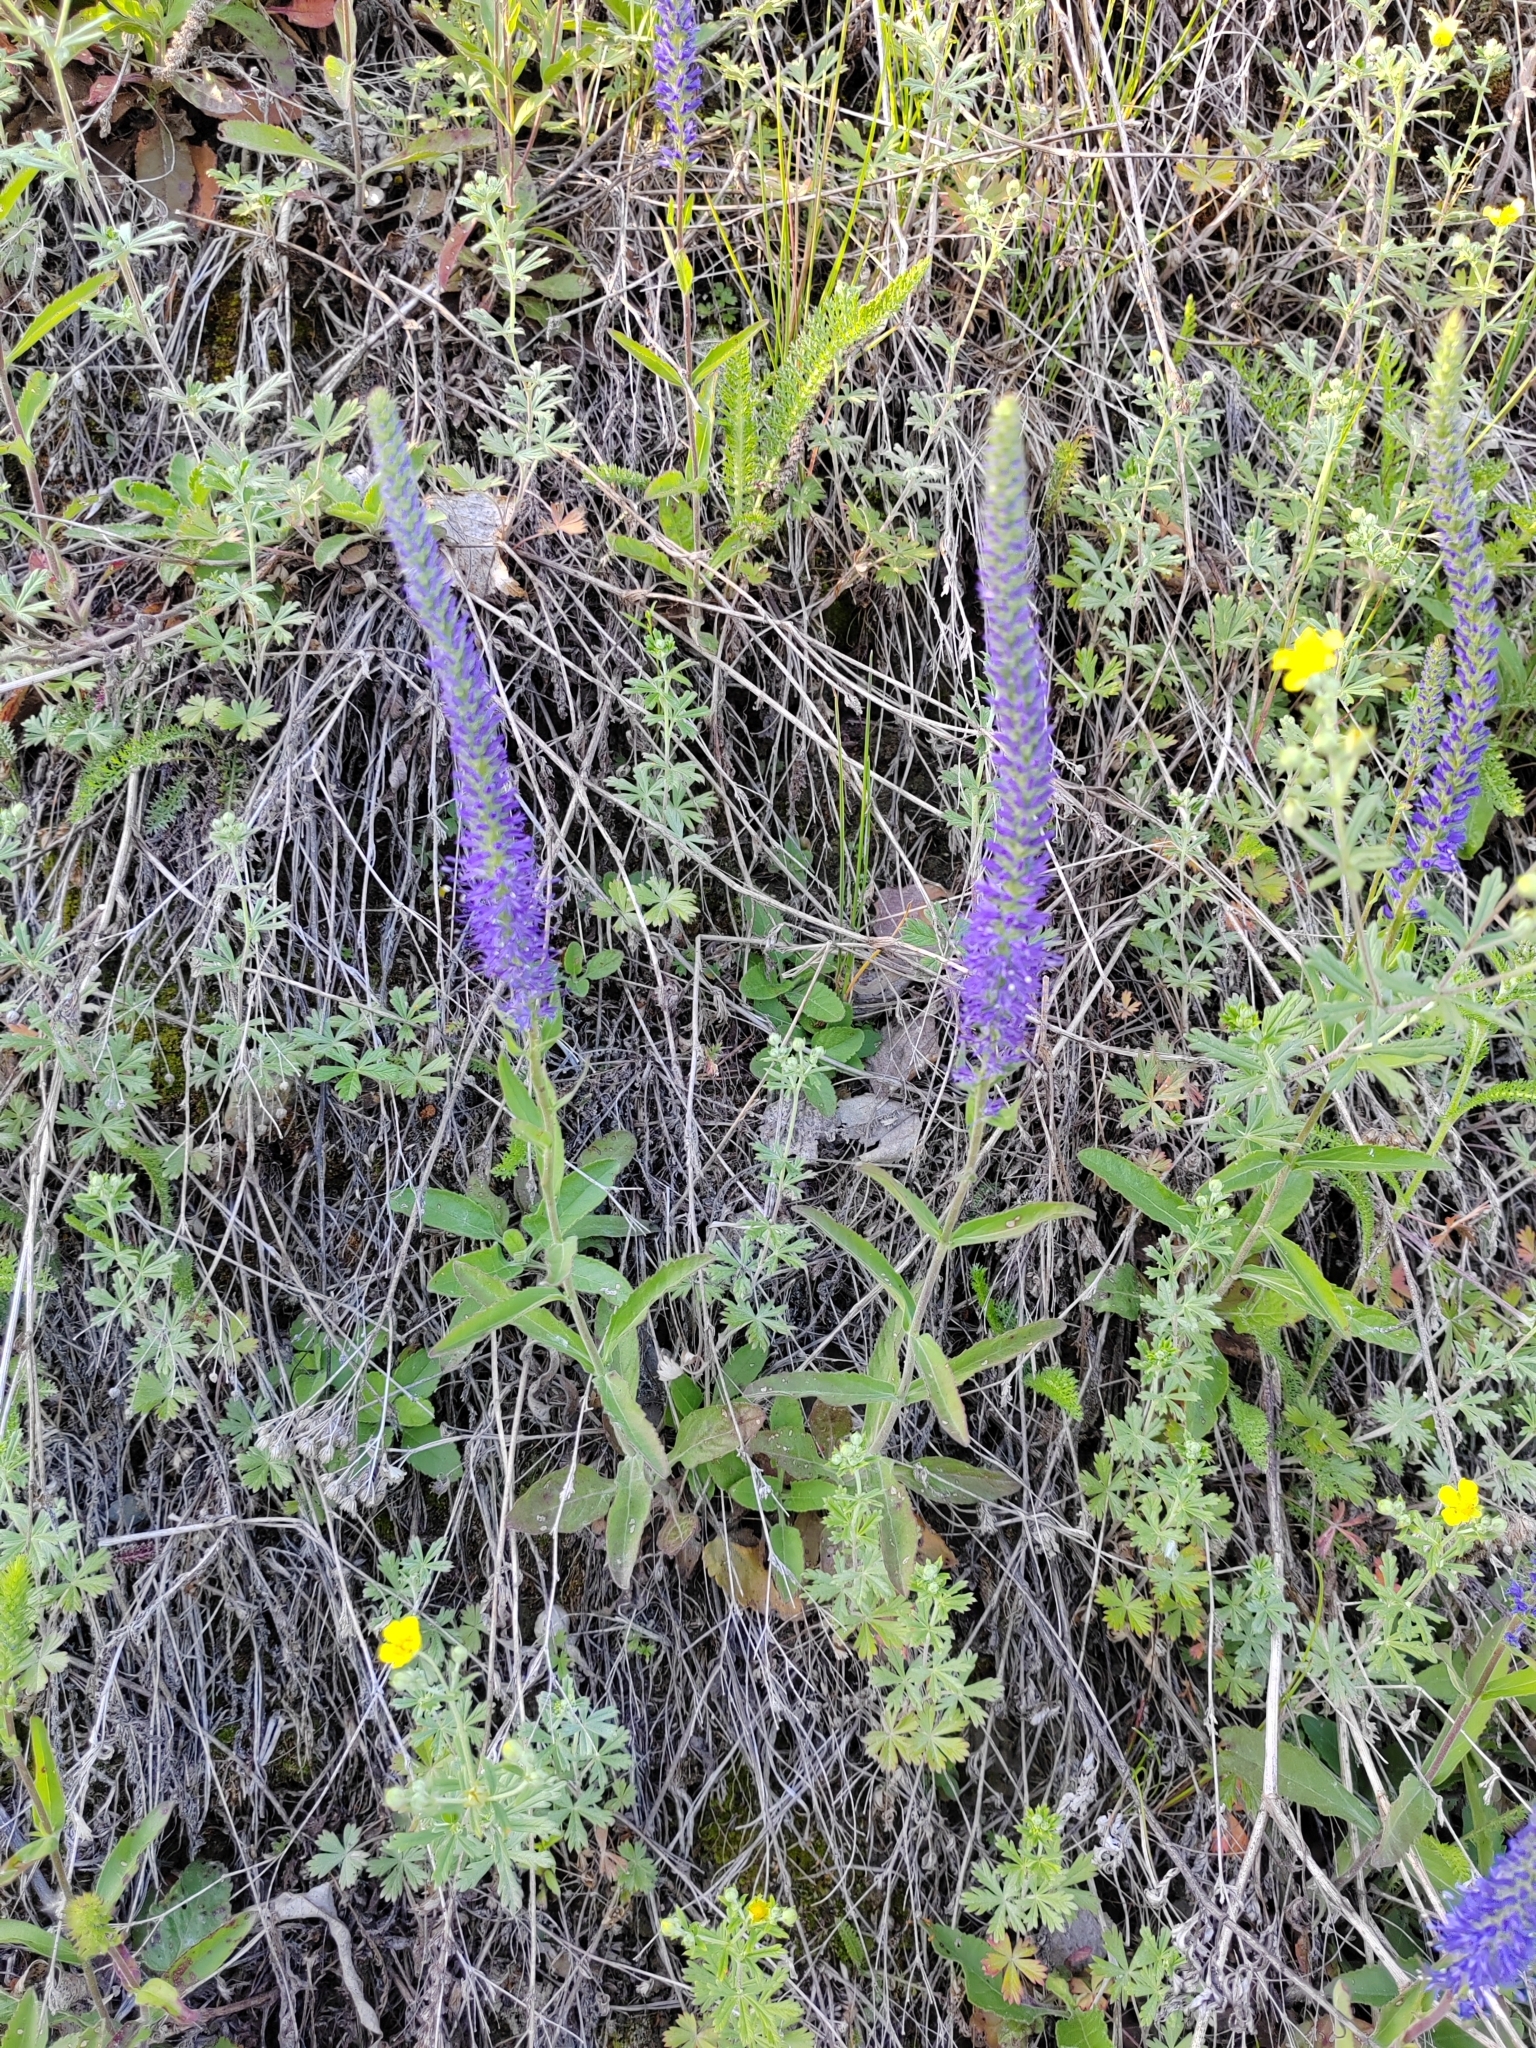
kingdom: Plantae
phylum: Tracheophyta
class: Magnoliopsida
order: Lamiales
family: Plantaginaceae
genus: Veronica
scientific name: Veronica spicata
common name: Spiked speedwell
